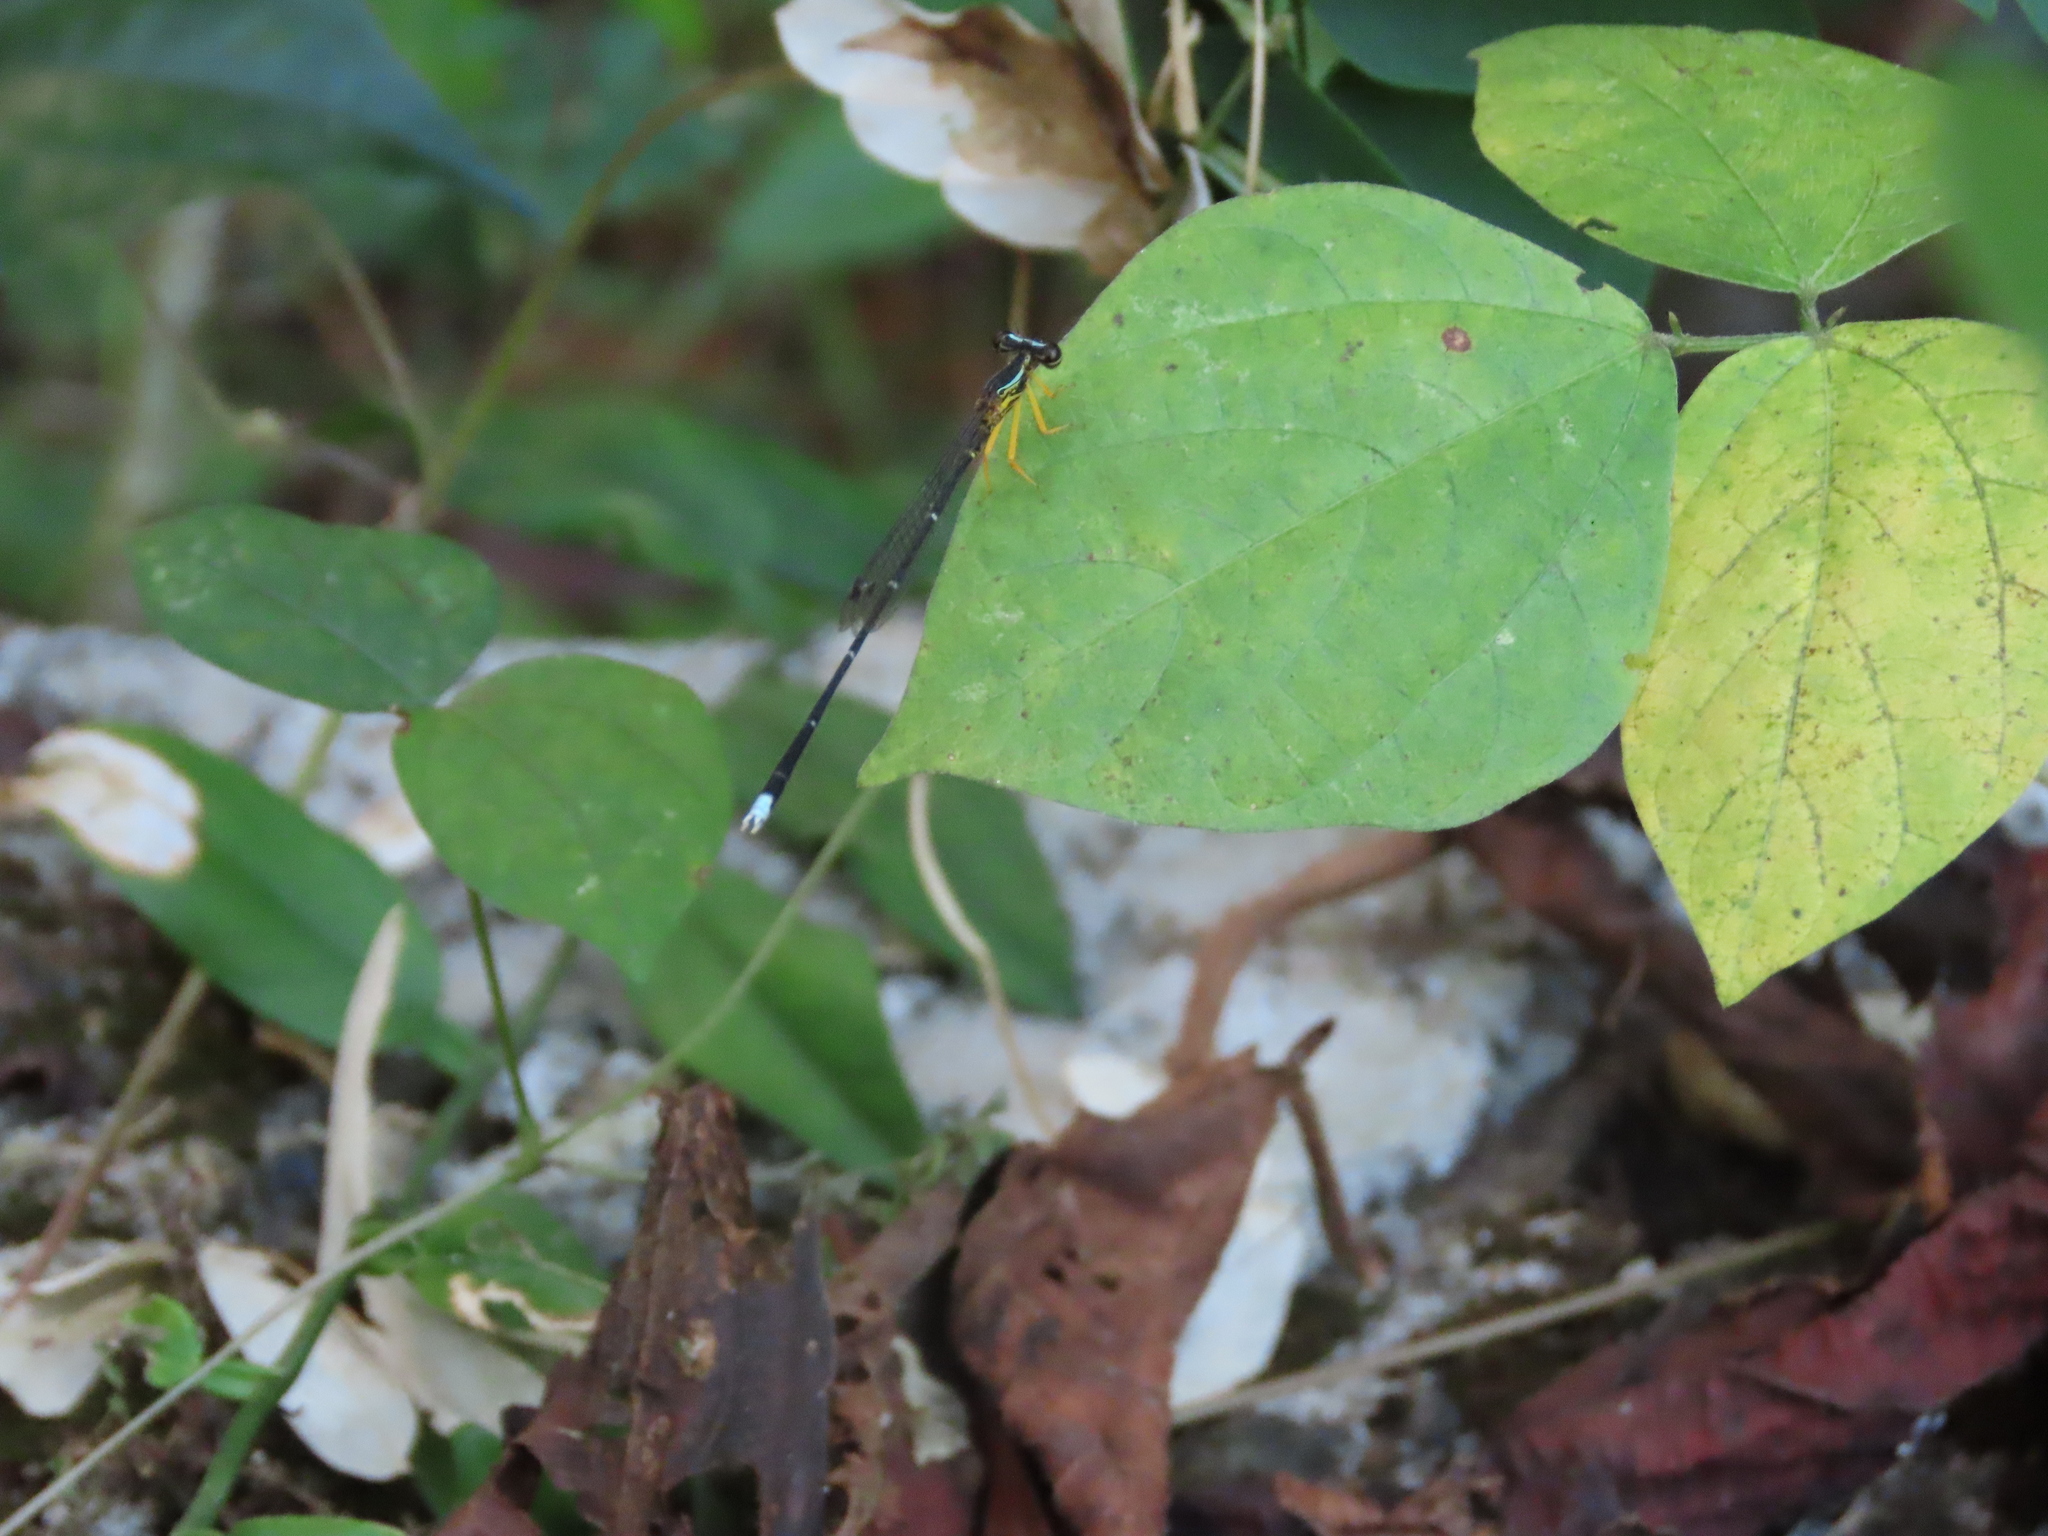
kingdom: Animalia
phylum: Arthropoda
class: Insecta
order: Odonata
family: Platycnemididae
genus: Copera
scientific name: Copera vittata
